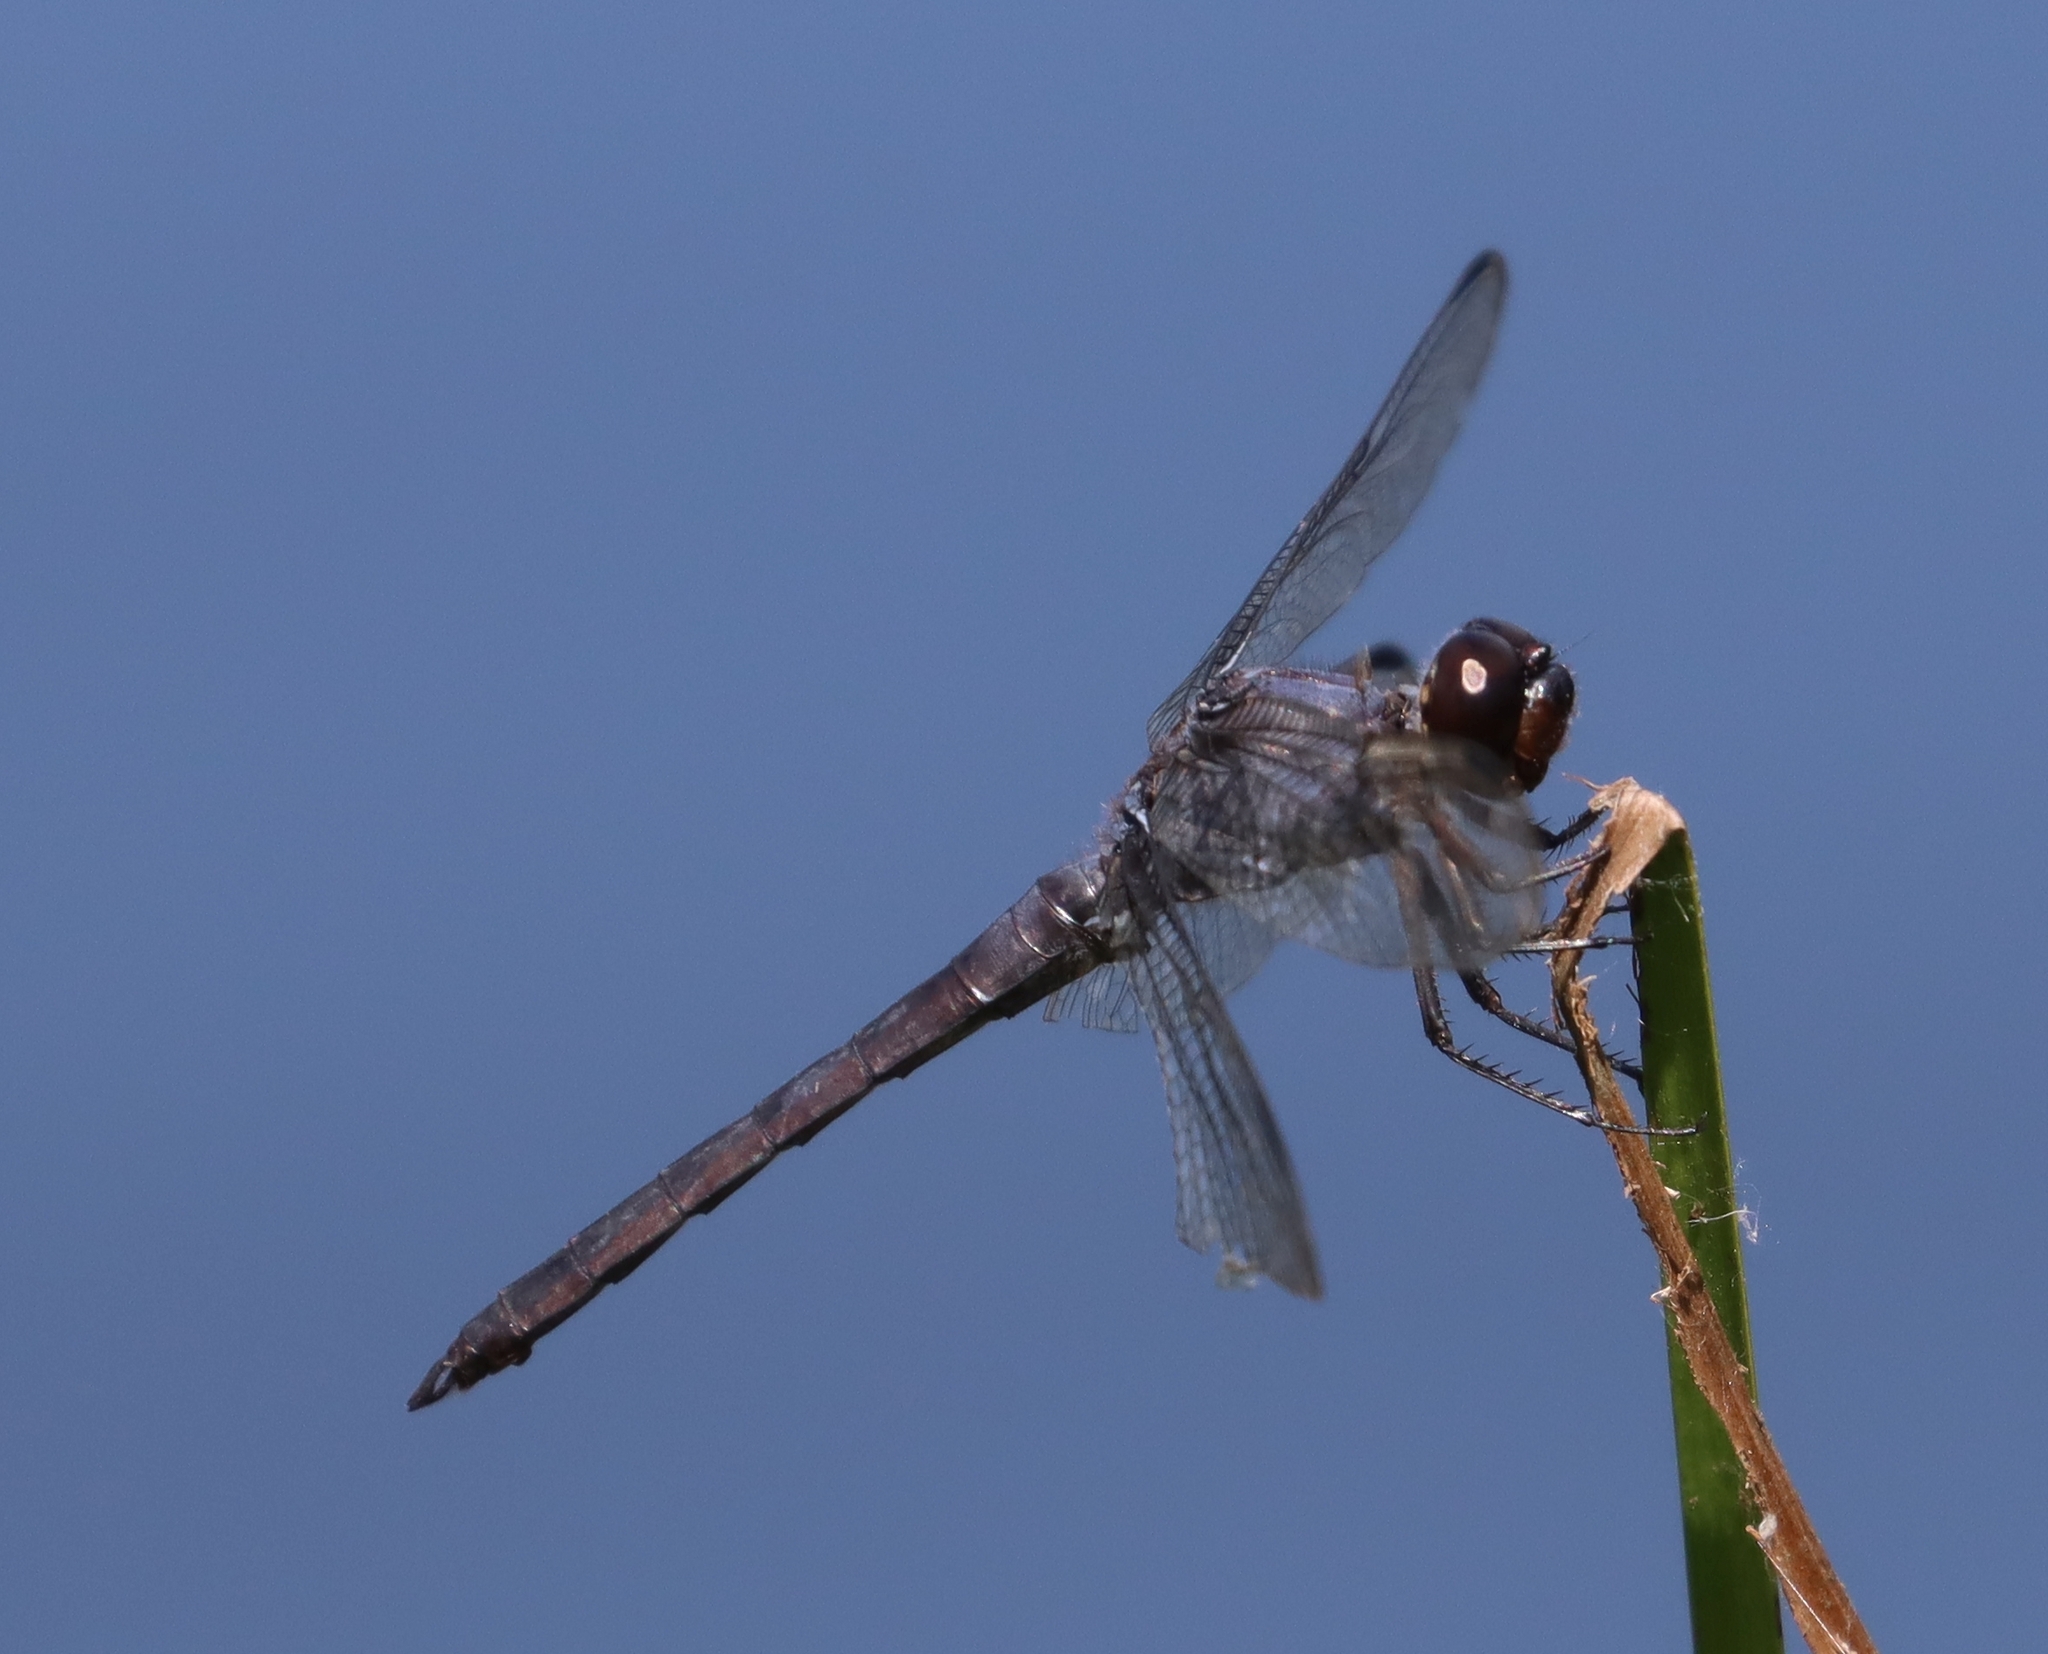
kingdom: Animalia
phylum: Arthropoda
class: Insecta
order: Odonata
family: Libellulidae
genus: Libellula
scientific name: Libellula incesta
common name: Slaty skimmer
